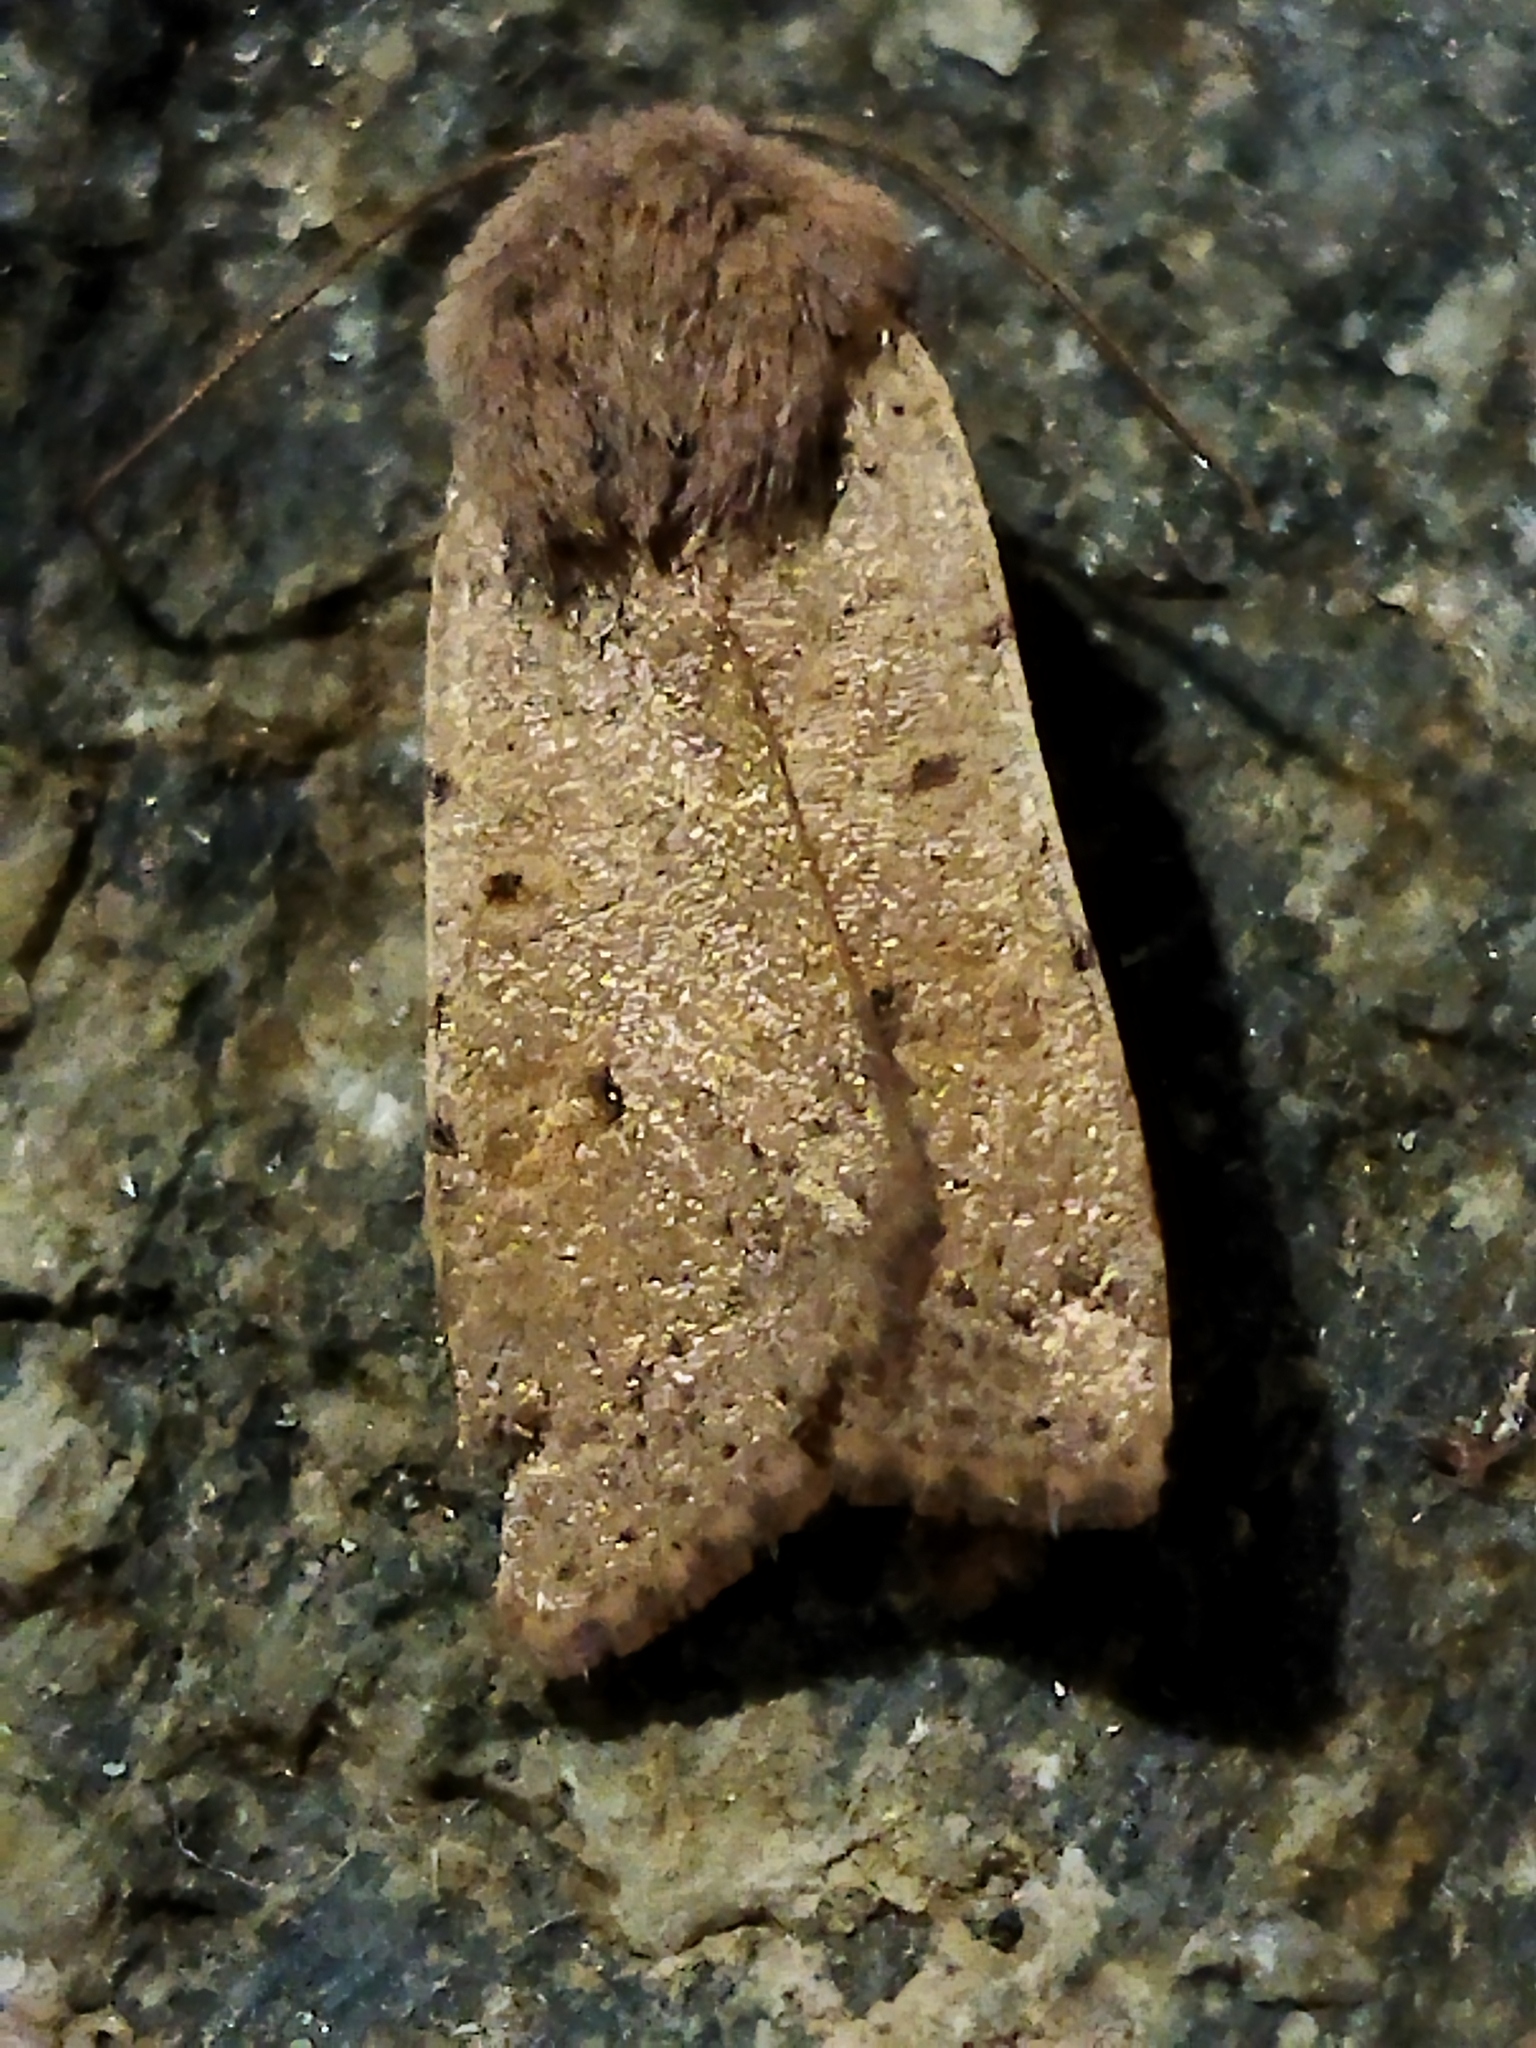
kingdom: Animalia
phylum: Arthropoda
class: Insecta
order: Lepidoptera
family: Noctuidae
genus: Agrochola
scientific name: Agrochola lychnidis
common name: Beaded chestnut
